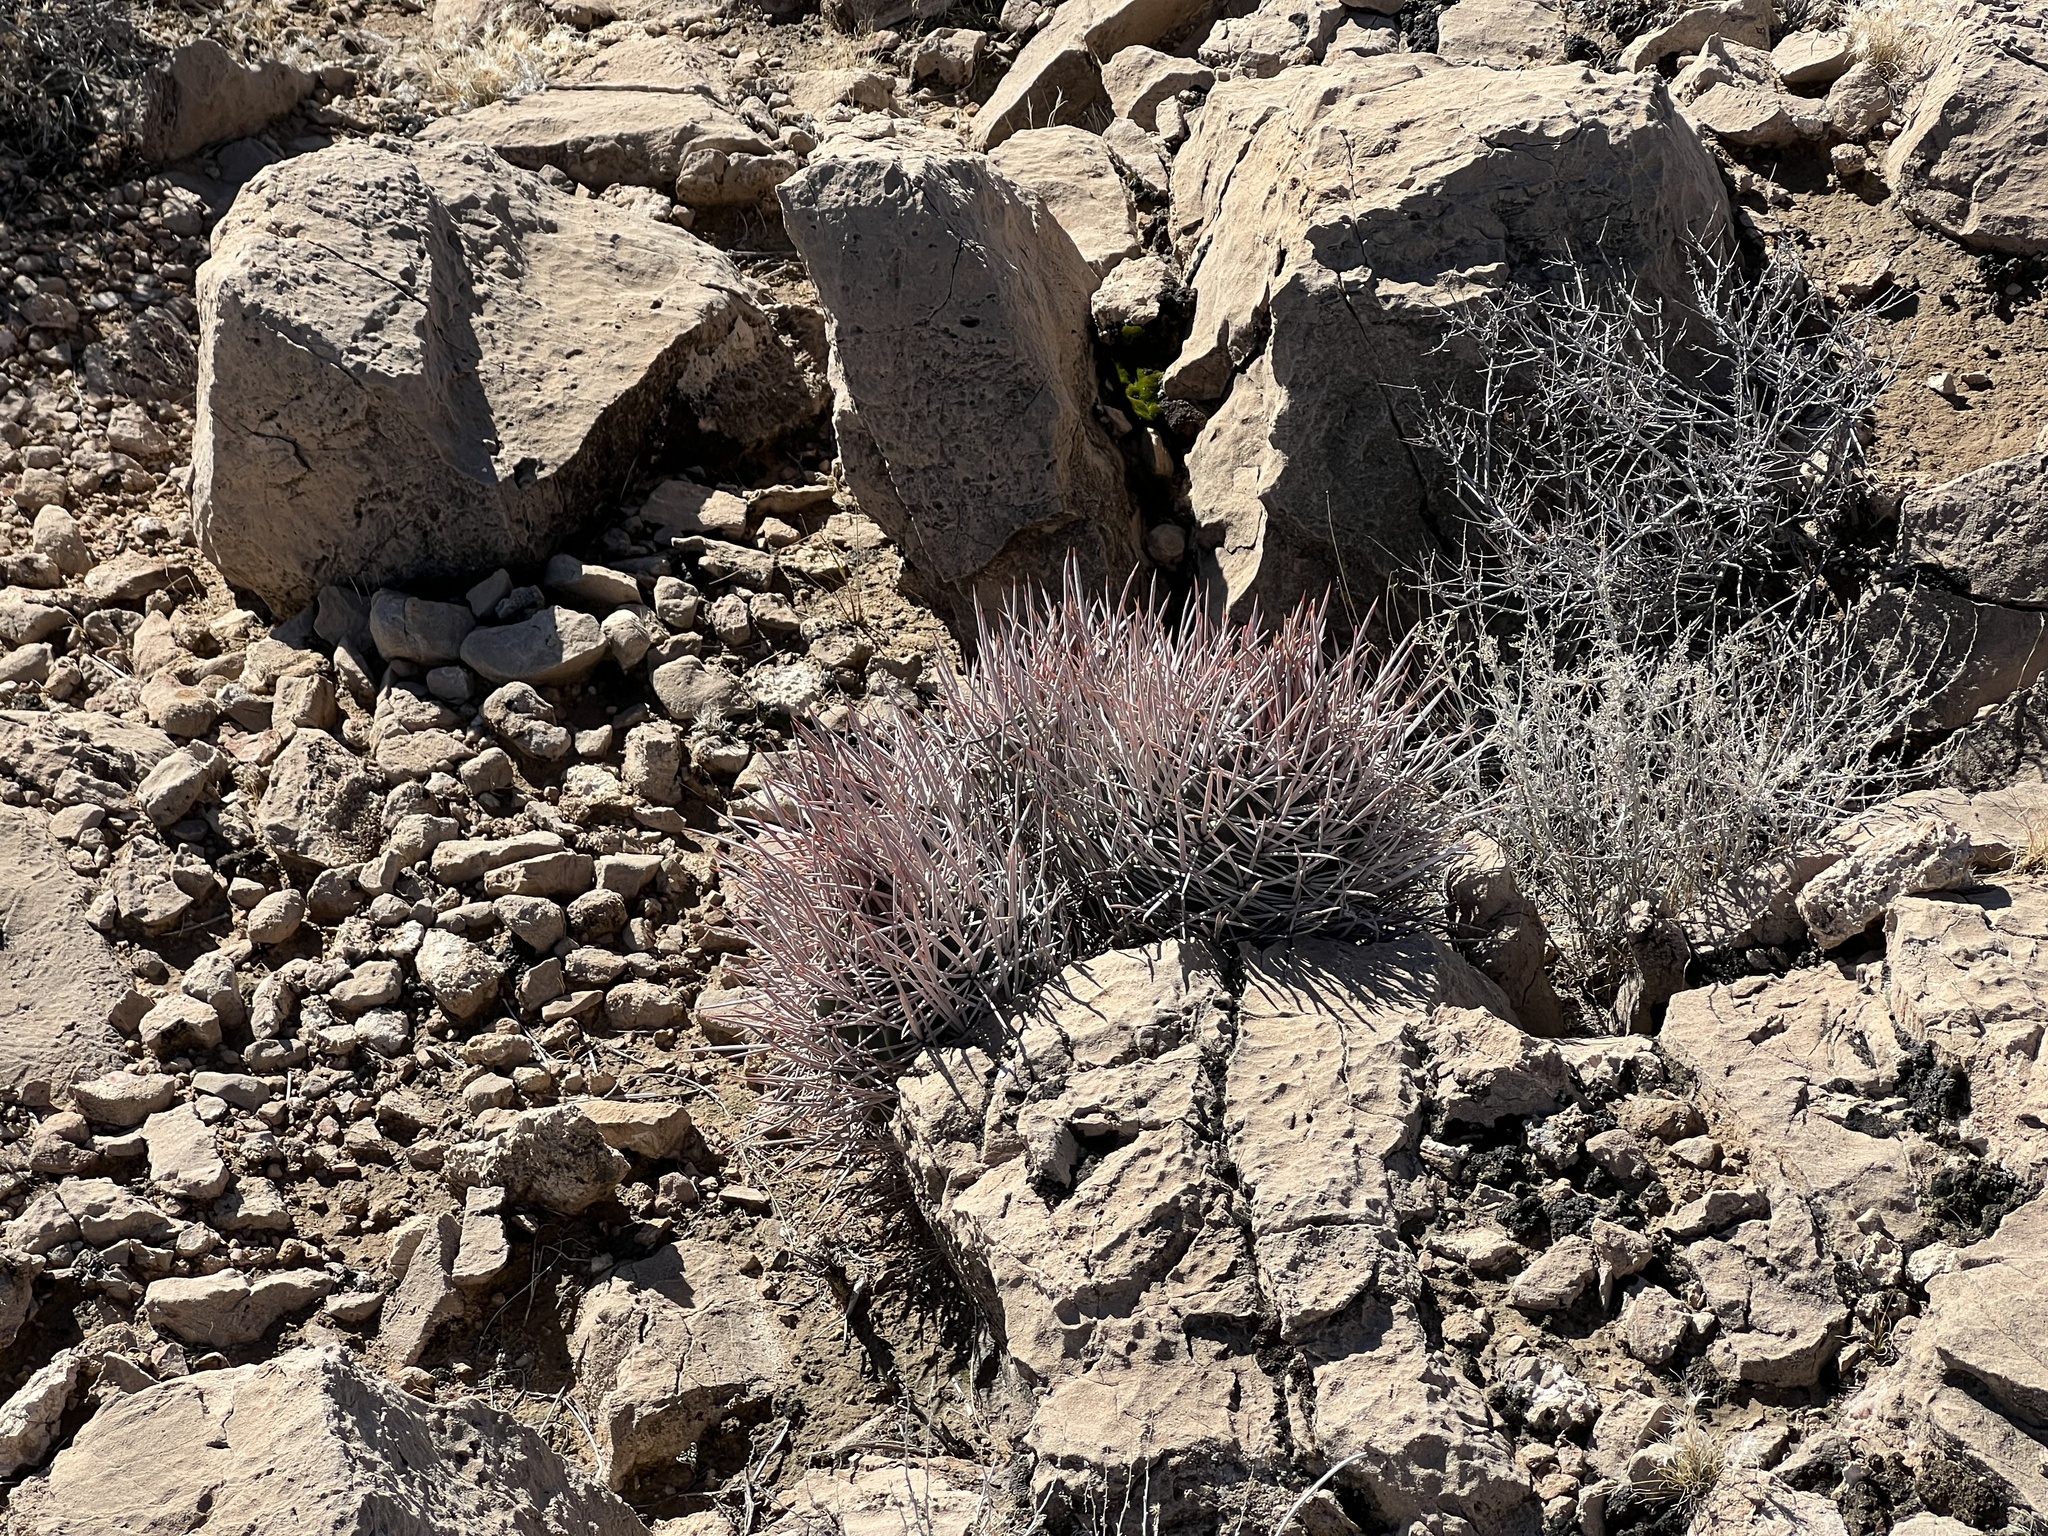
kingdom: Plantae
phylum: Tracheophyta
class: Magnoliopsida
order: Caryophyllales
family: Cactaceae
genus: Echinocactus
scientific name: Echinocactus polycephalus
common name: Cottontop cactus
